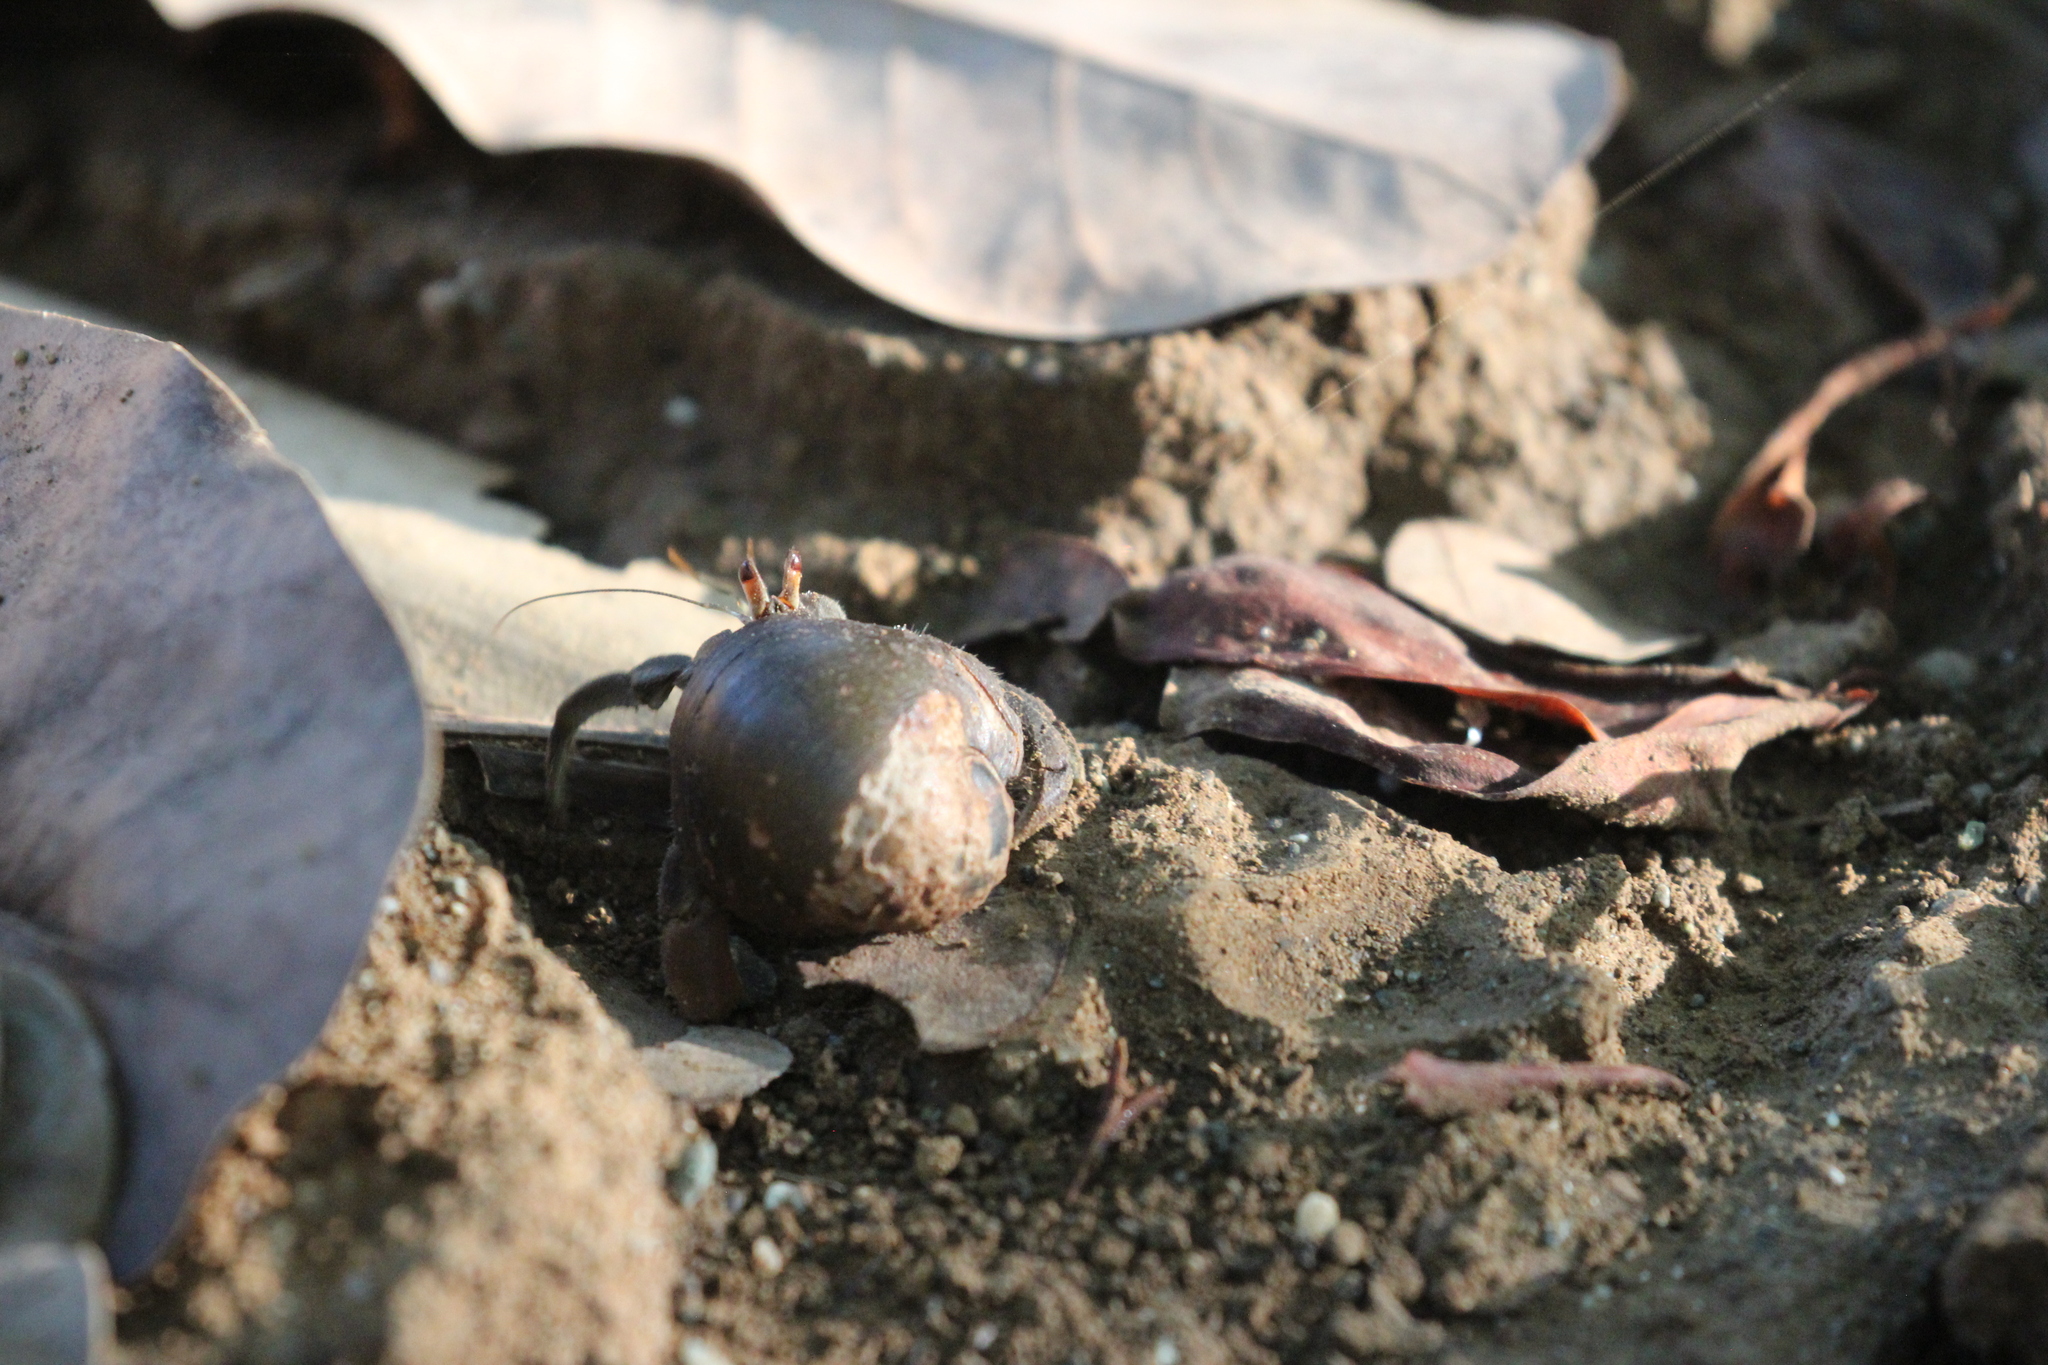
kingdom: Animalia
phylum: Arthropoda
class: Malacostraca
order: Decapoda
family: Coenobitidae
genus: Coenobita
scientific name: Coenobita compressus
